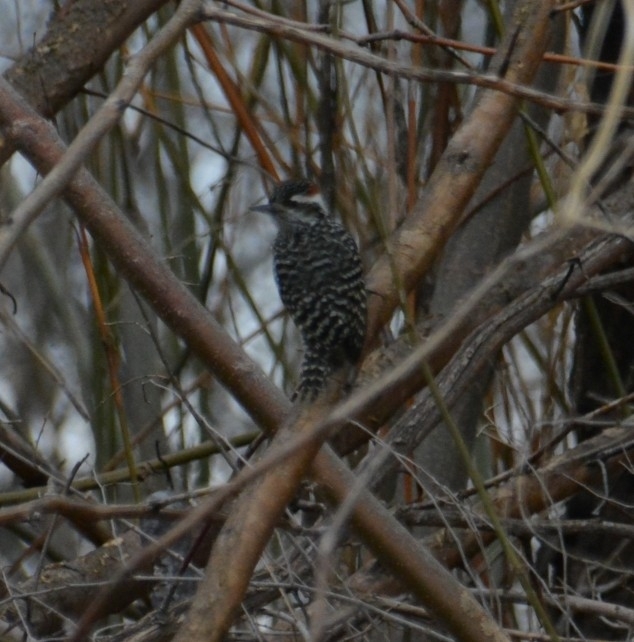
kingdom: Animalia
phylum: Chordata
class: Aves
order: Piciformes
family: Picidae
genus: Veniliornis
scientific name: Veniliornis mixtus
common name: Checkered woodpecker
